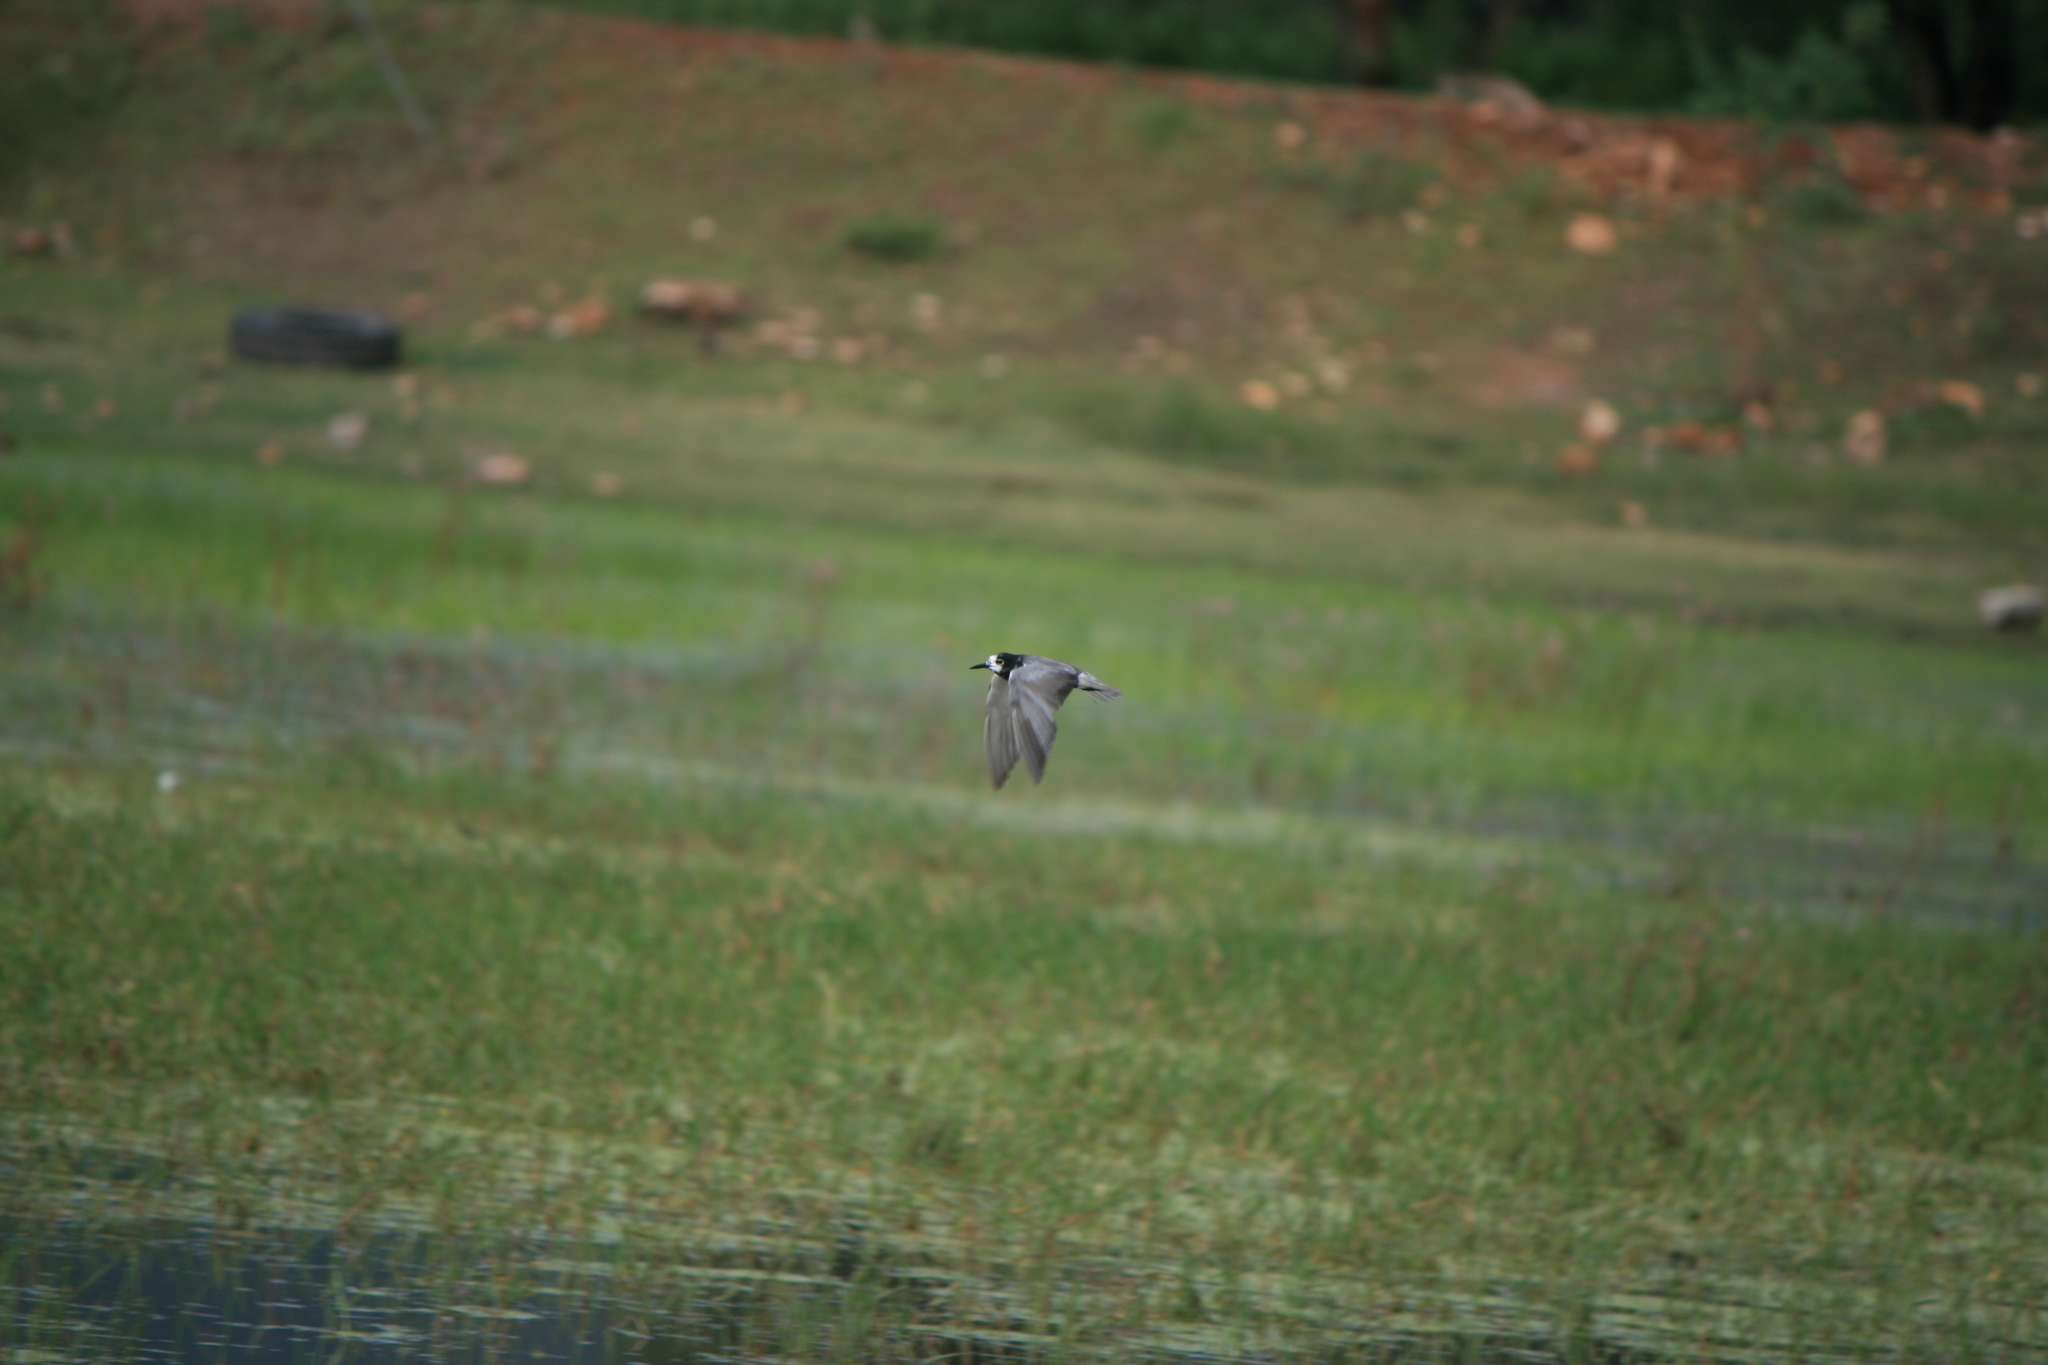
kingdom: Animalia
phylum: Chordata
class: Aves
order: Charadriiformes
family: Laridae
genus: Chlidonias
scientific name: Chlidonias niger
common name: Black tern
